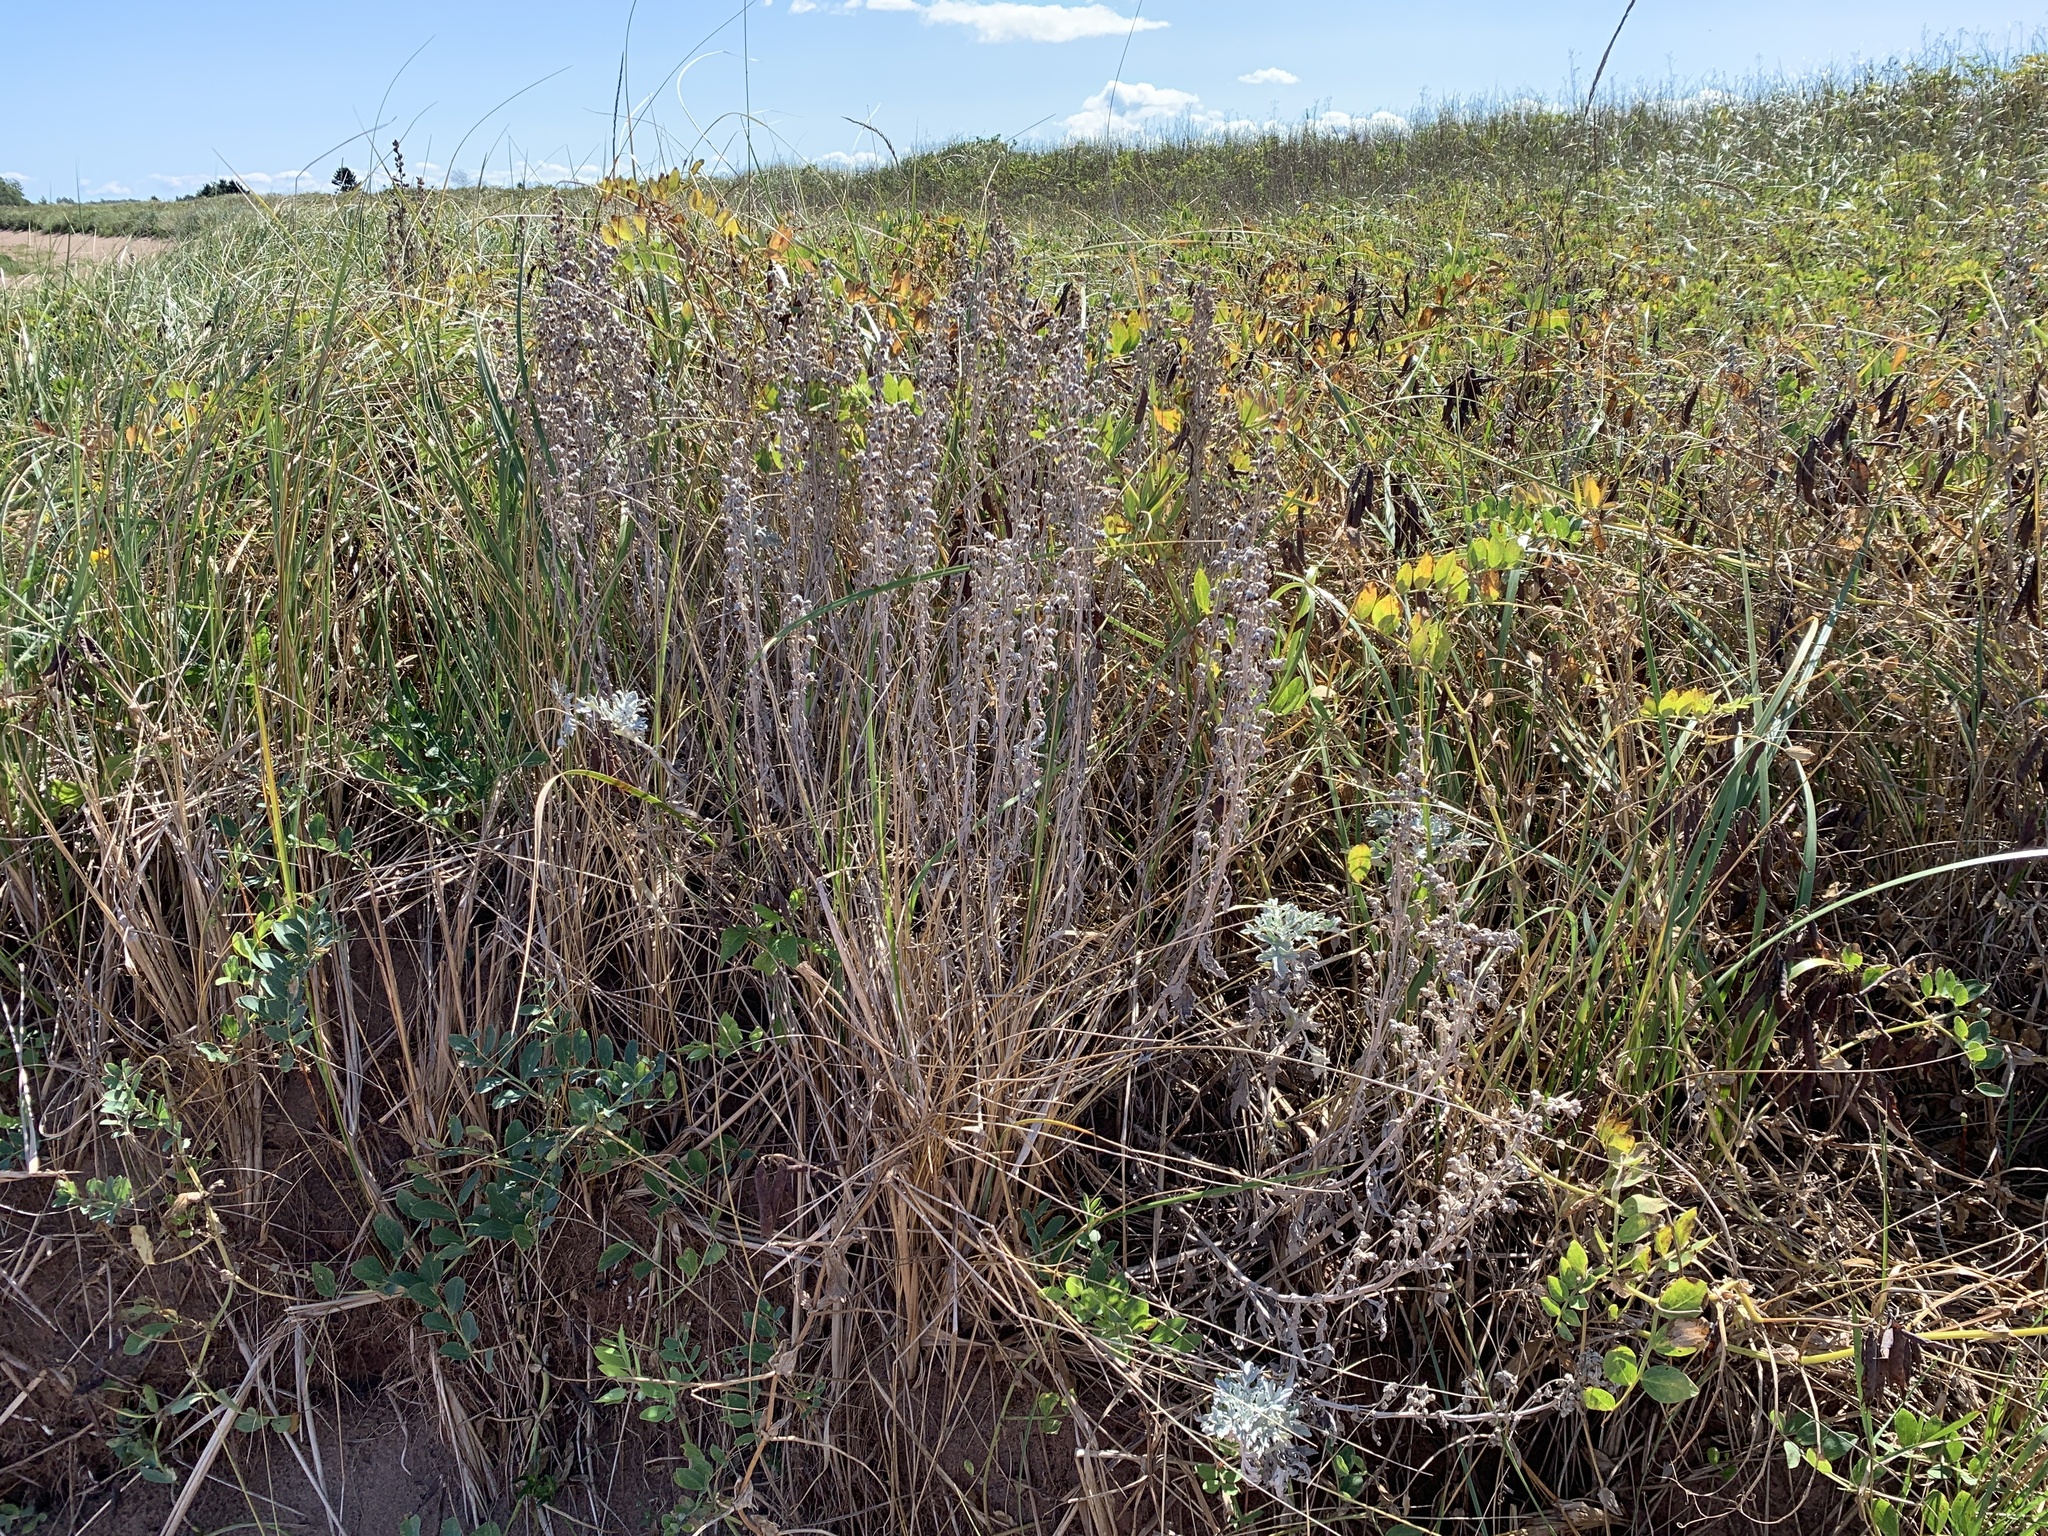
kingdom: Plantae
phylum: Tracheophyta
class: Magnoliopsida
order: Asterales
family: Asteraceae
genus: Artemisia
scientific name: Artemisia stelleriana
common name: Beach wormwood
